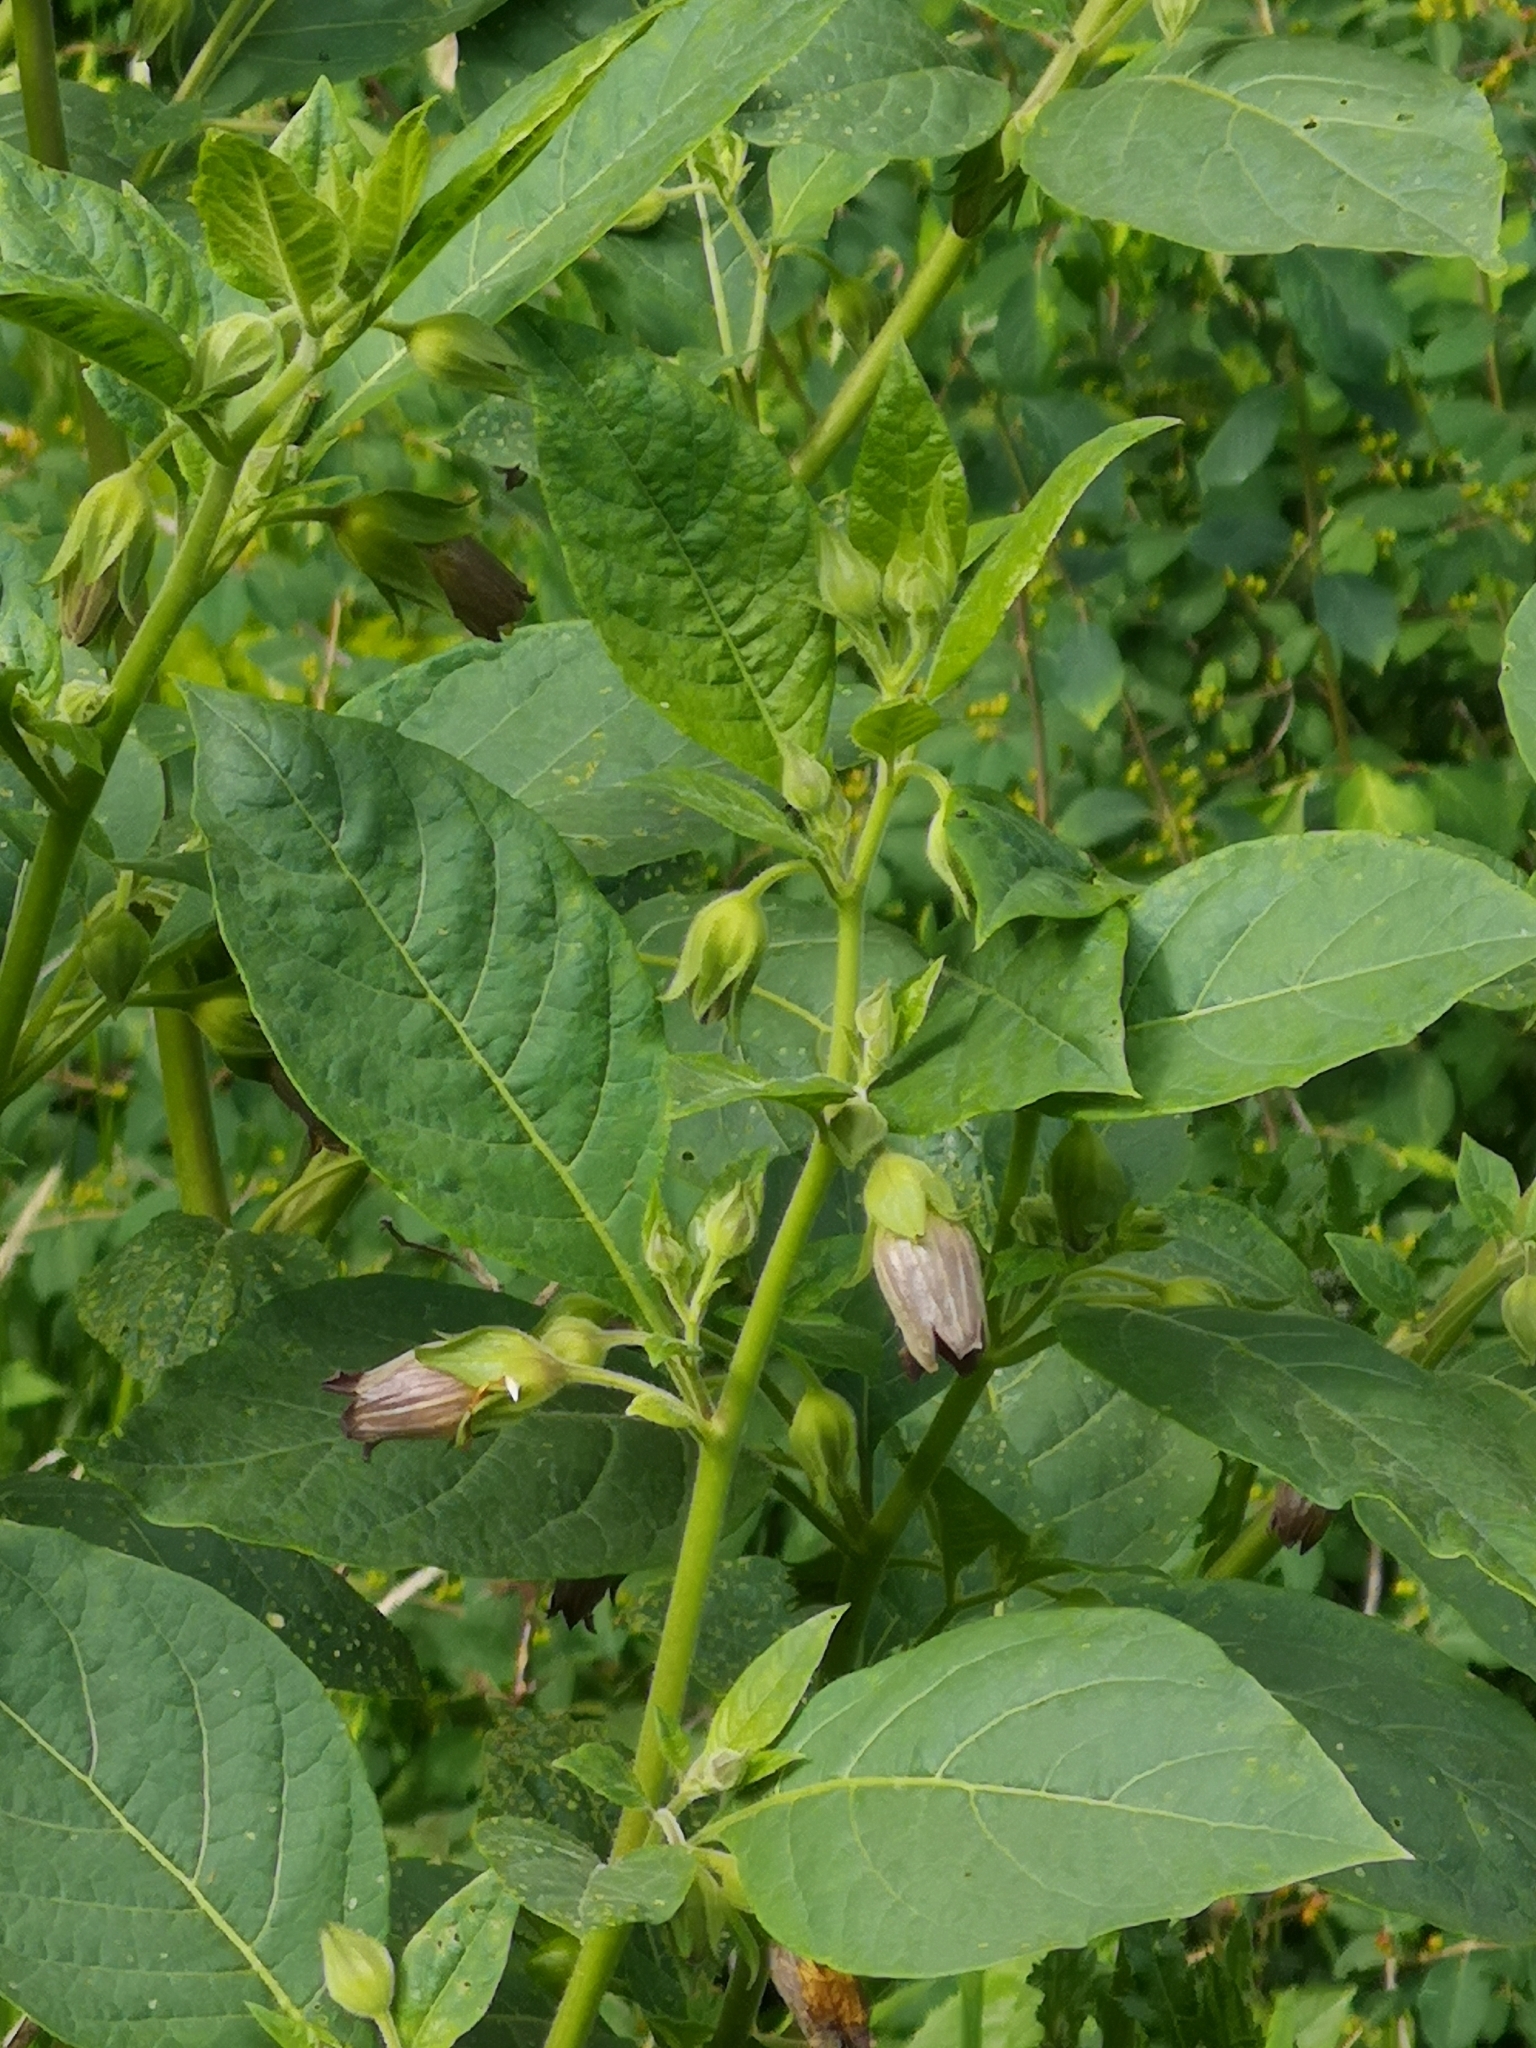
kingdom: Plantae
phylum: Tracheophyta
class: Magnoliopsida
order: Solanales
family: Solanaceae
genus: Atropa
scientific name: Atropa belladonna
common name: Deadly nightshade
